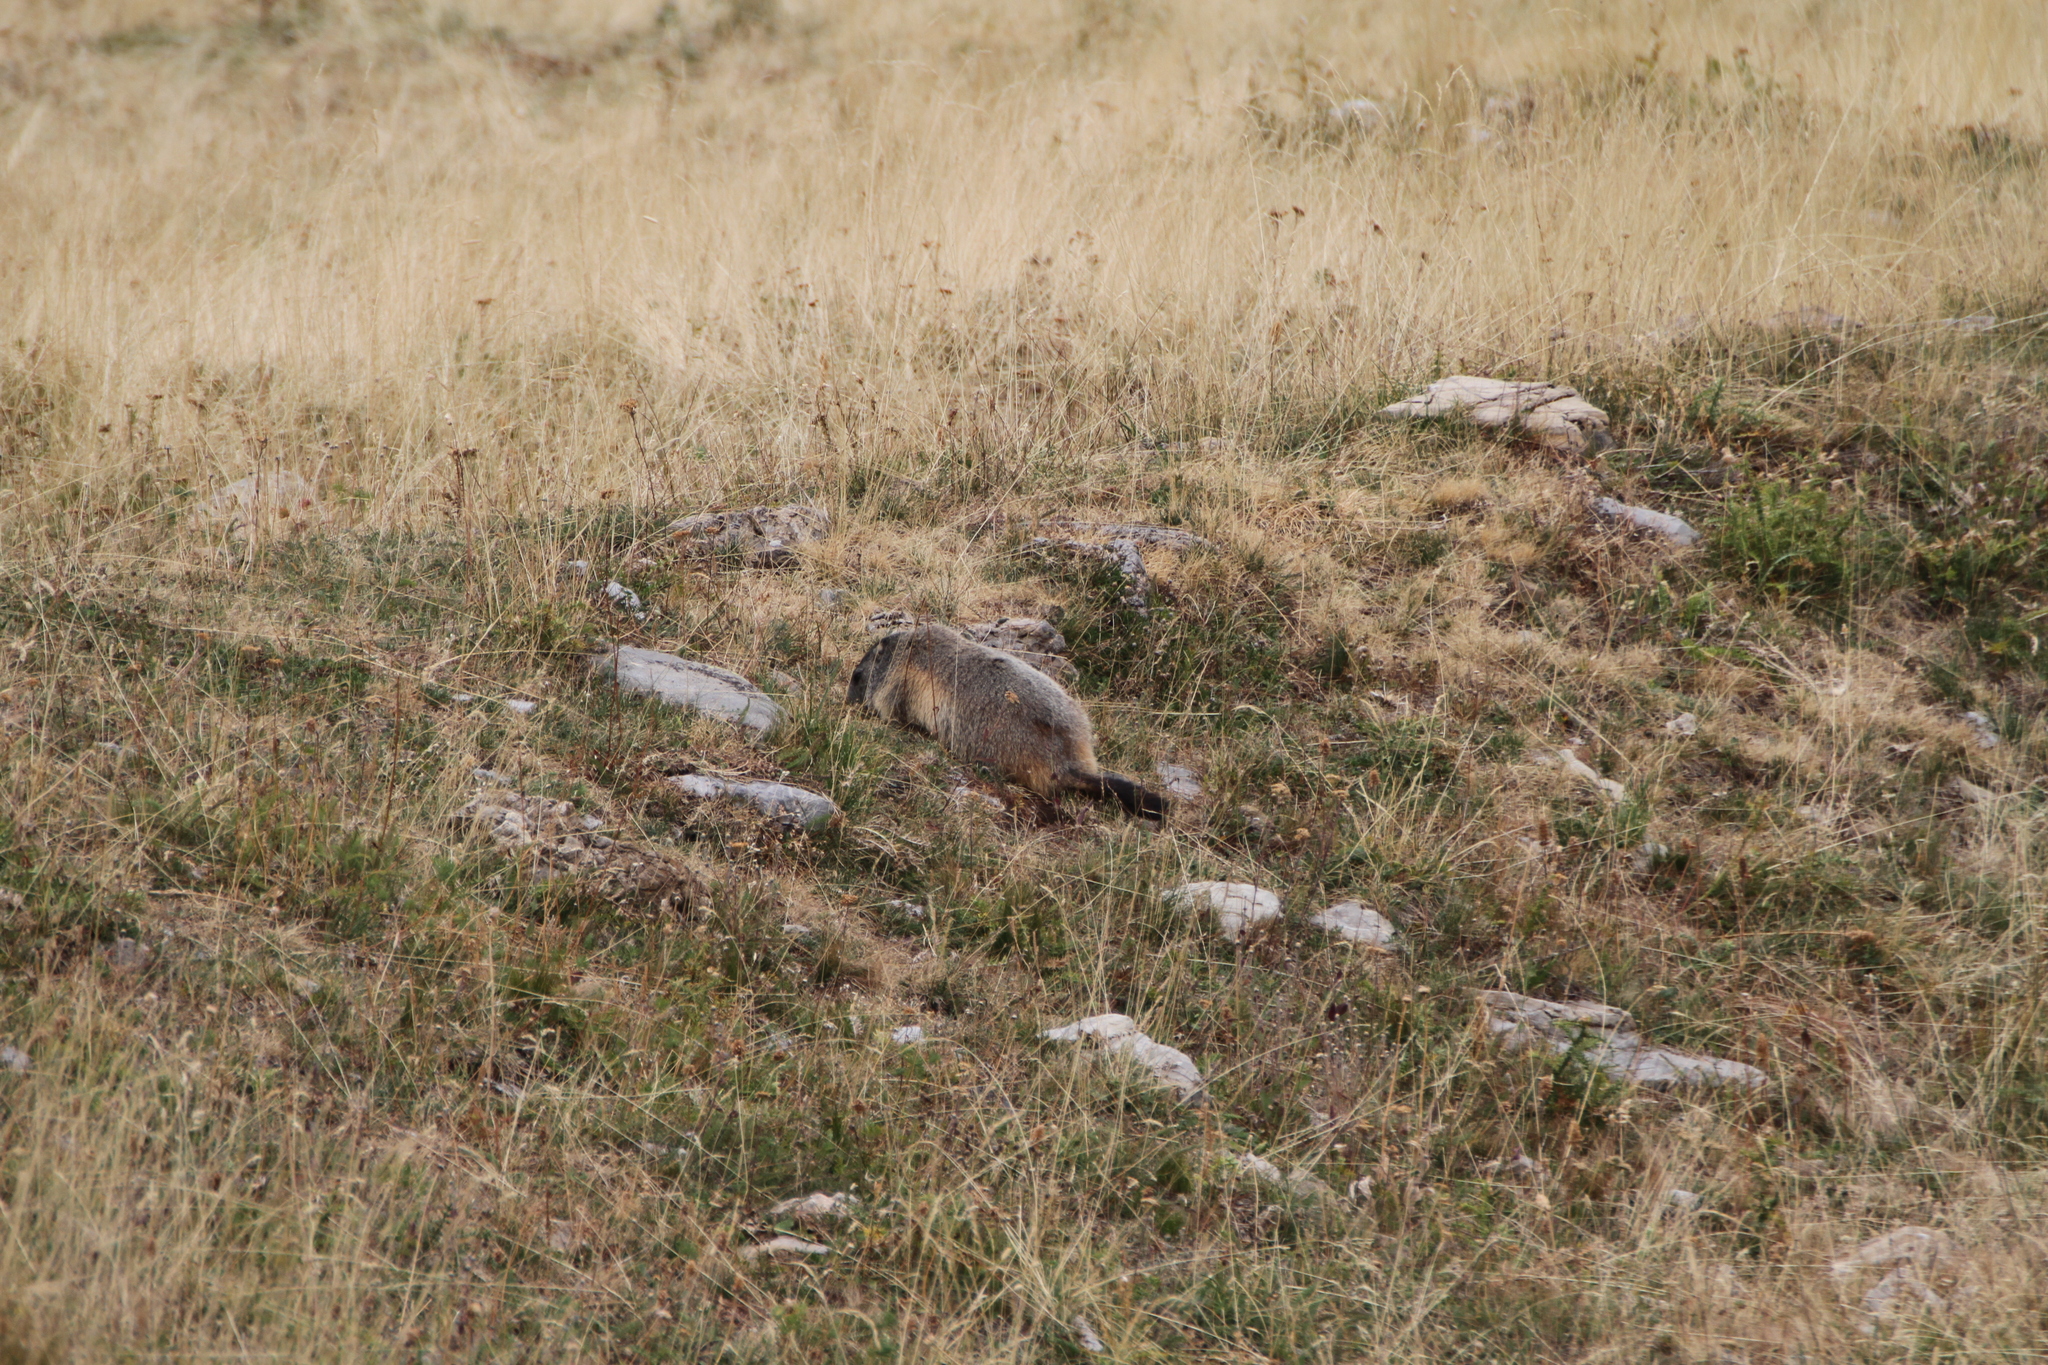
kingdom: Animalia
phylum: Chordata
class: Mammalia
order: Rodentia
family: Sciuridae
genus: Marmota
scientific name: Marmota marmota
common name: Alpine marmot
